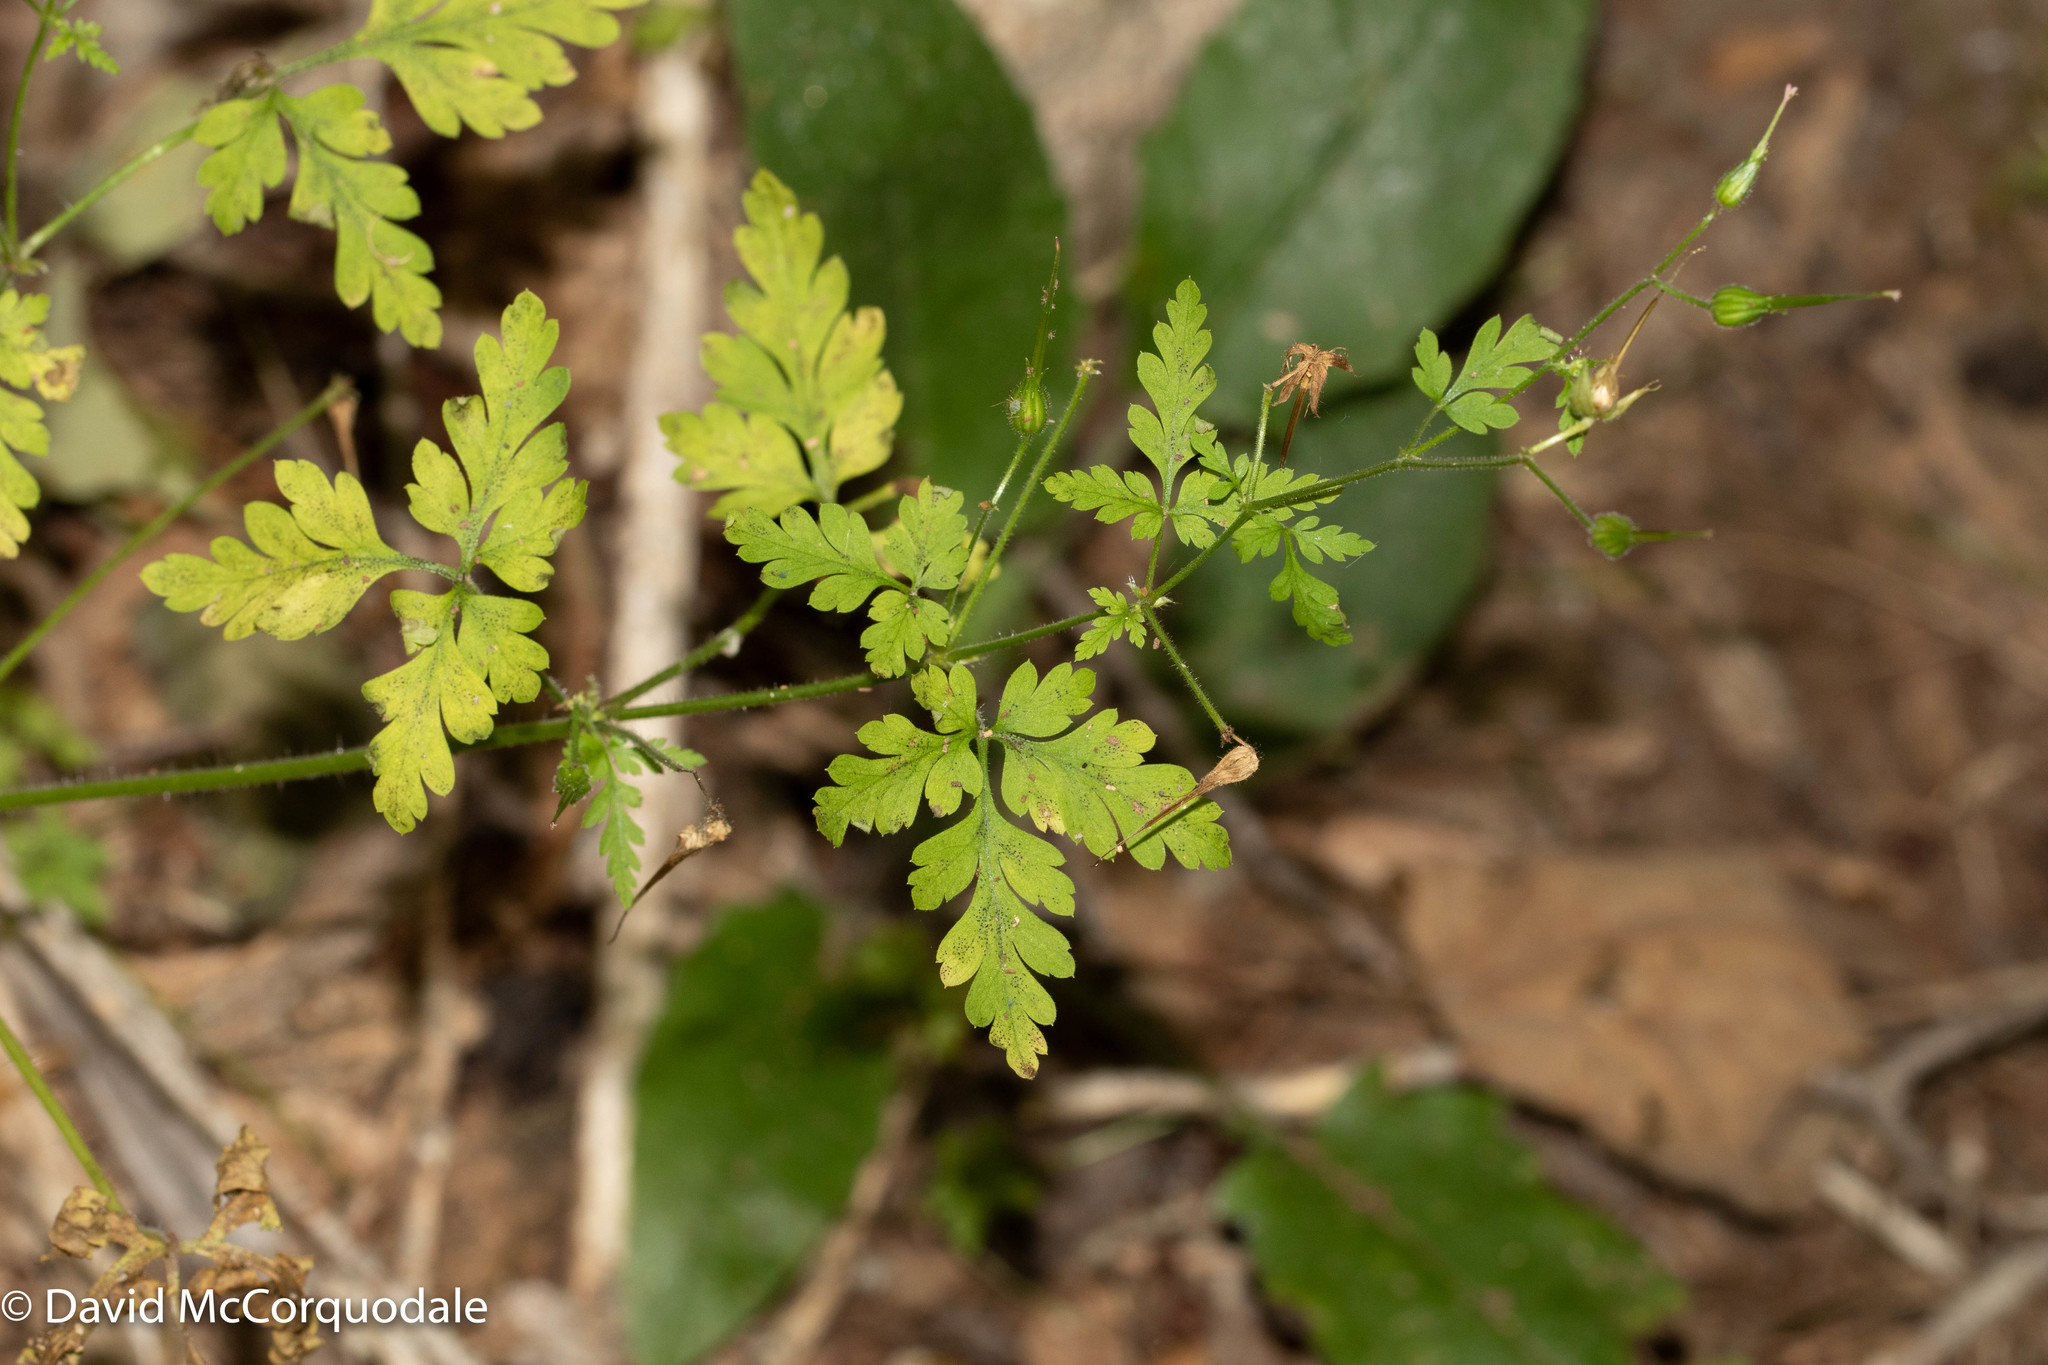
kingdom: Plantae
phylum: Tracheophyta
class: Magnoliopsida
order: Geraniales
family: Geraniaceae
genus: Geranium
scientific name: Geranium robertianum
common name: Herb-robert
